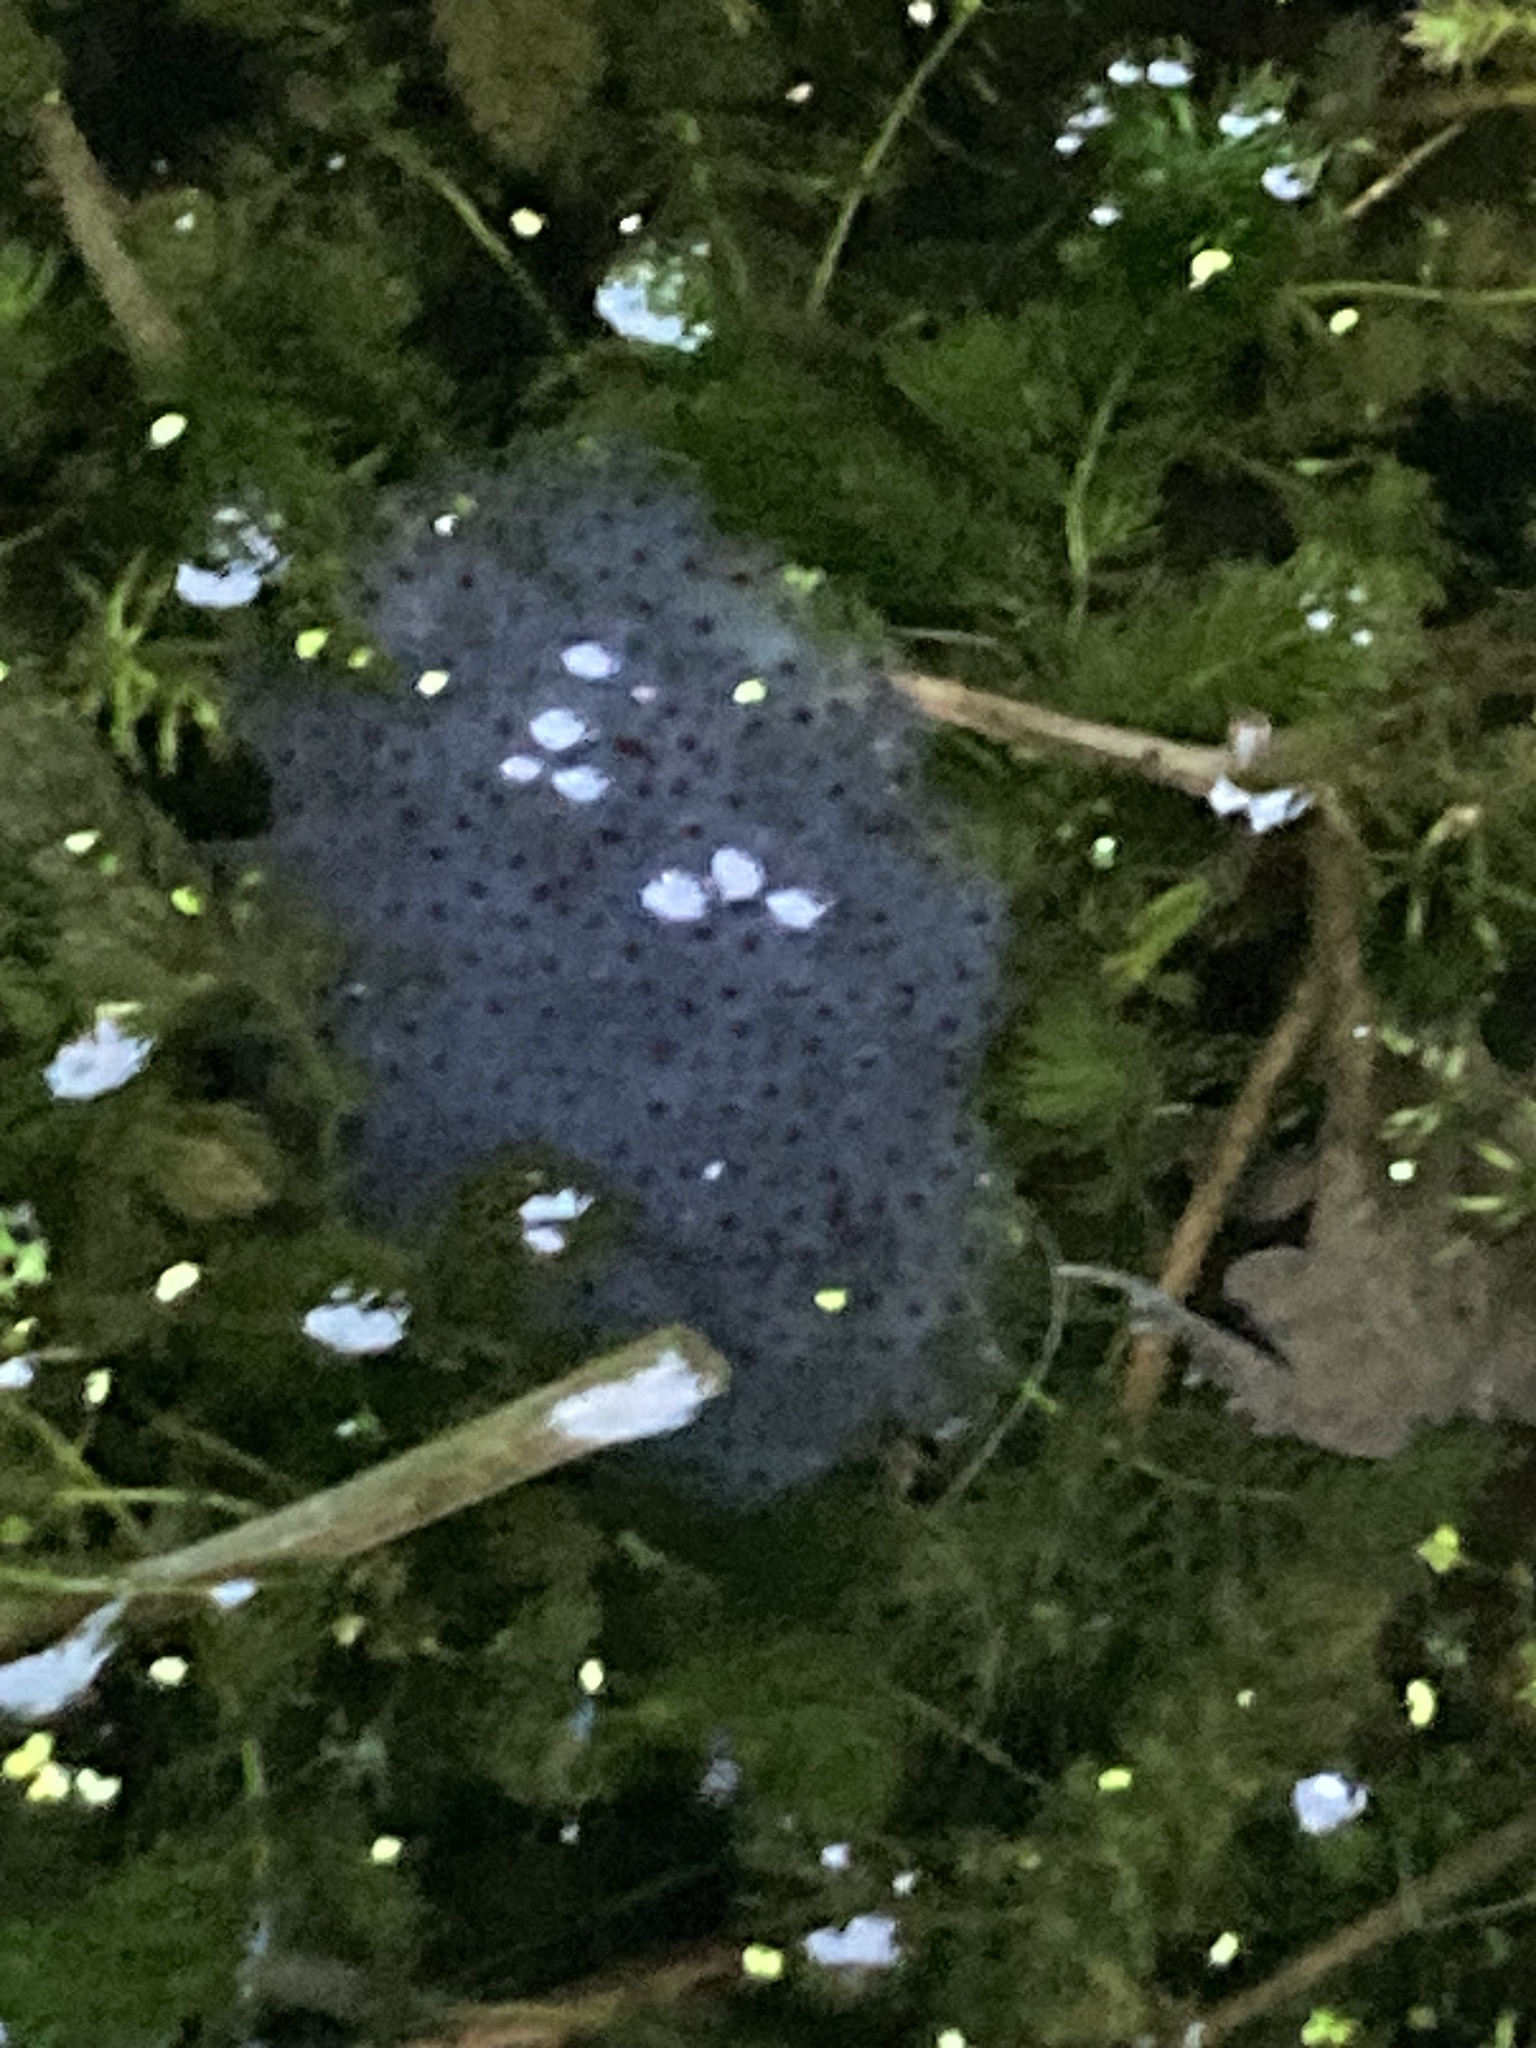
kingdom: Animalia
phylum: Chordata
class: Amphibia
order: Anura
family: Ranidae
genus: Rana
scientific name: Rana temporaria
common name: Common frog
